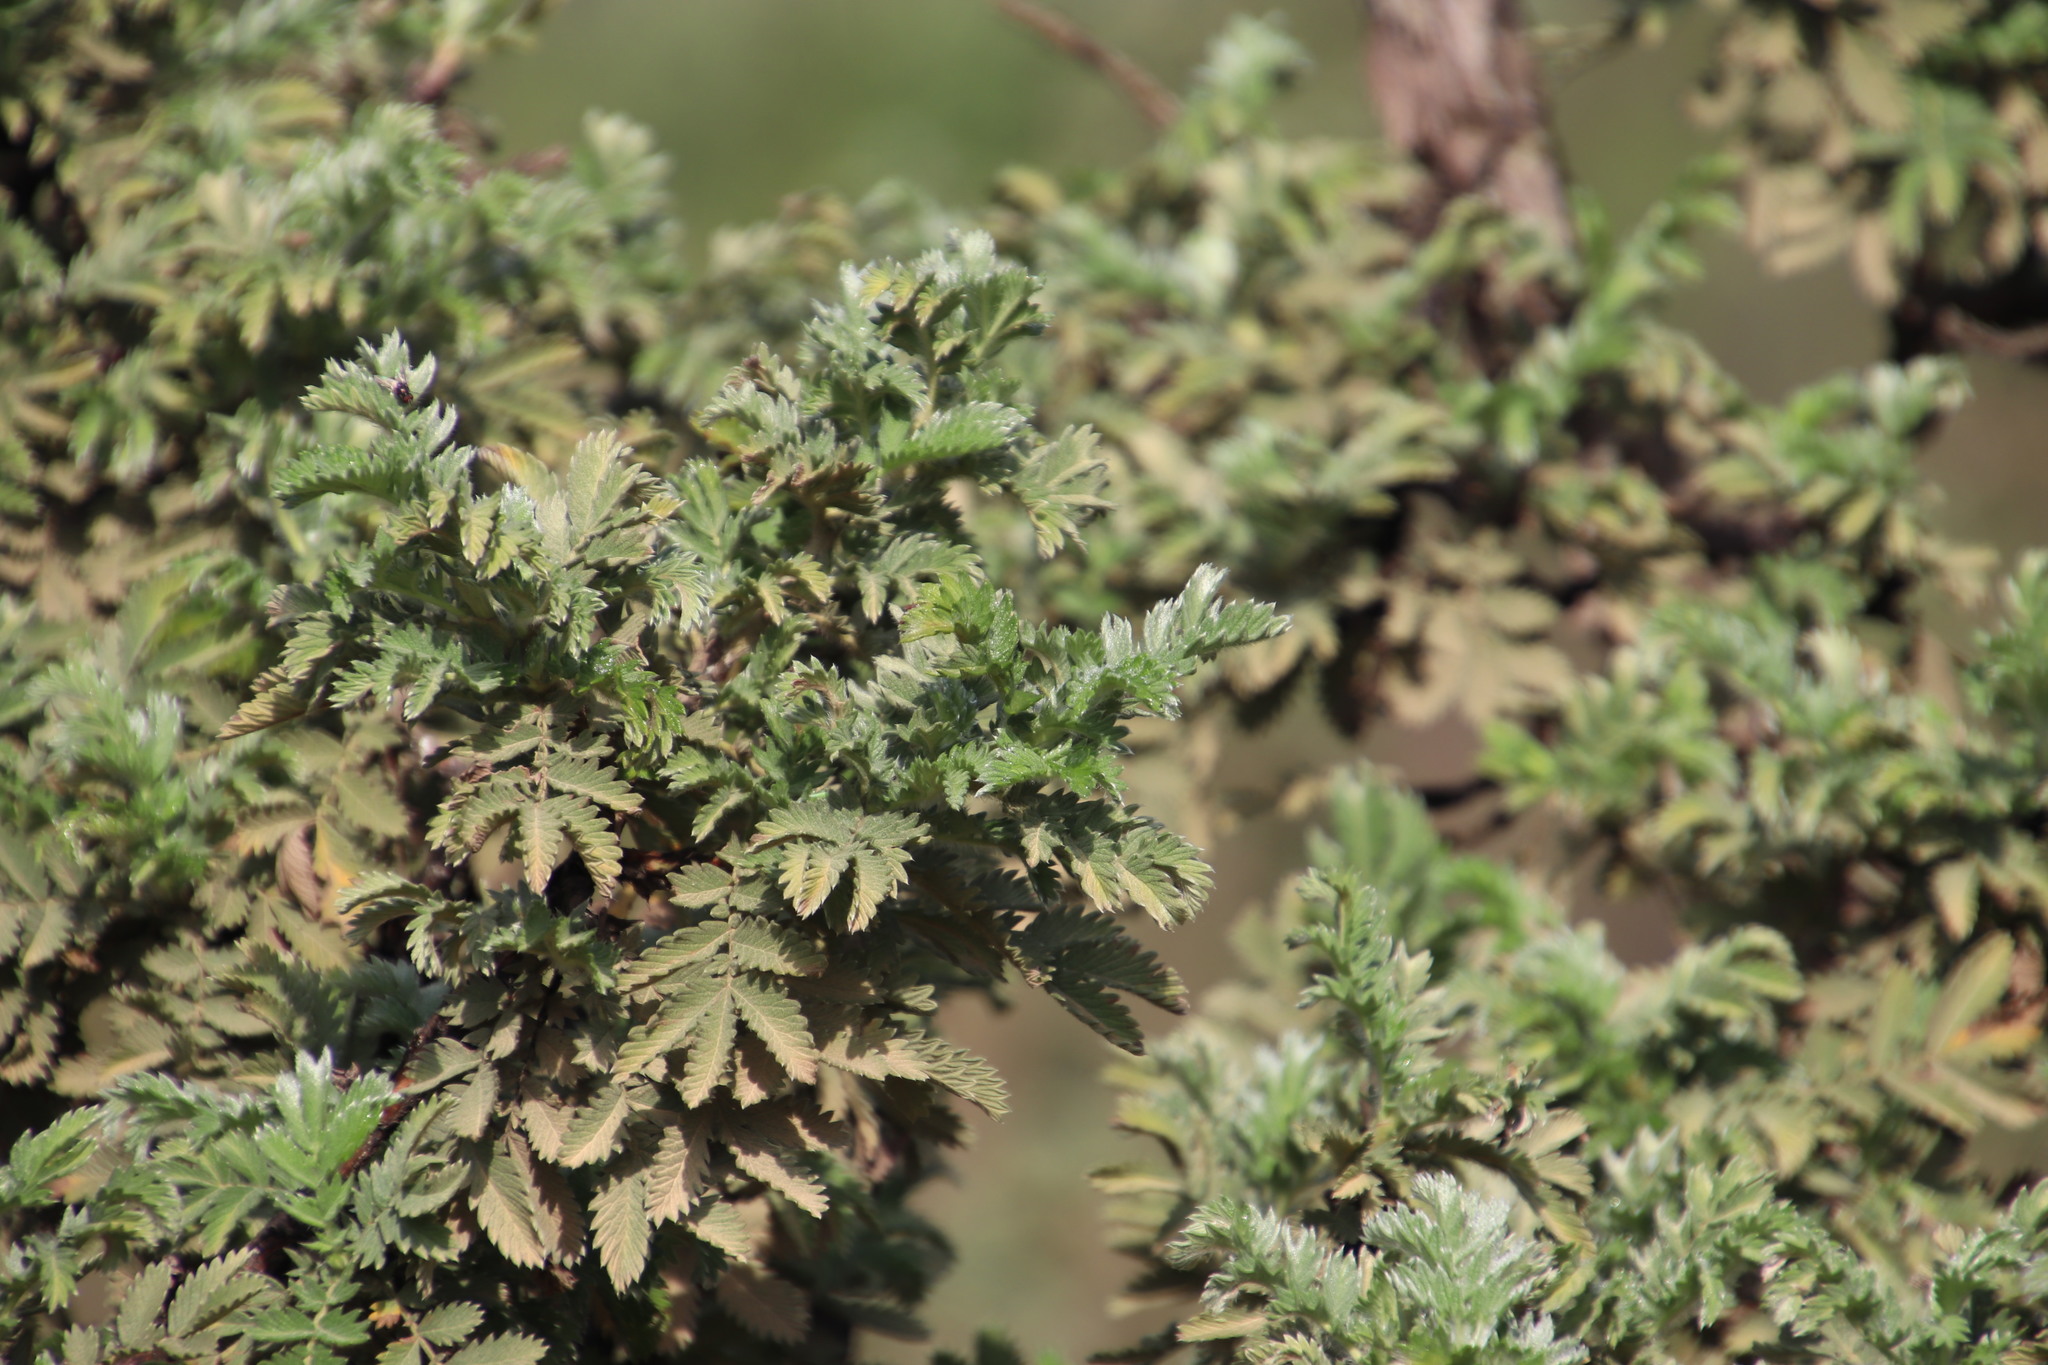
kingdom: Plantae
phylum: Tracheophyta
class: Magnoliopsida
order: Rosales
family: Rosaceae
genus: Leucosidea
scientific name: Leucosidea sericea
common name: Oldwood
